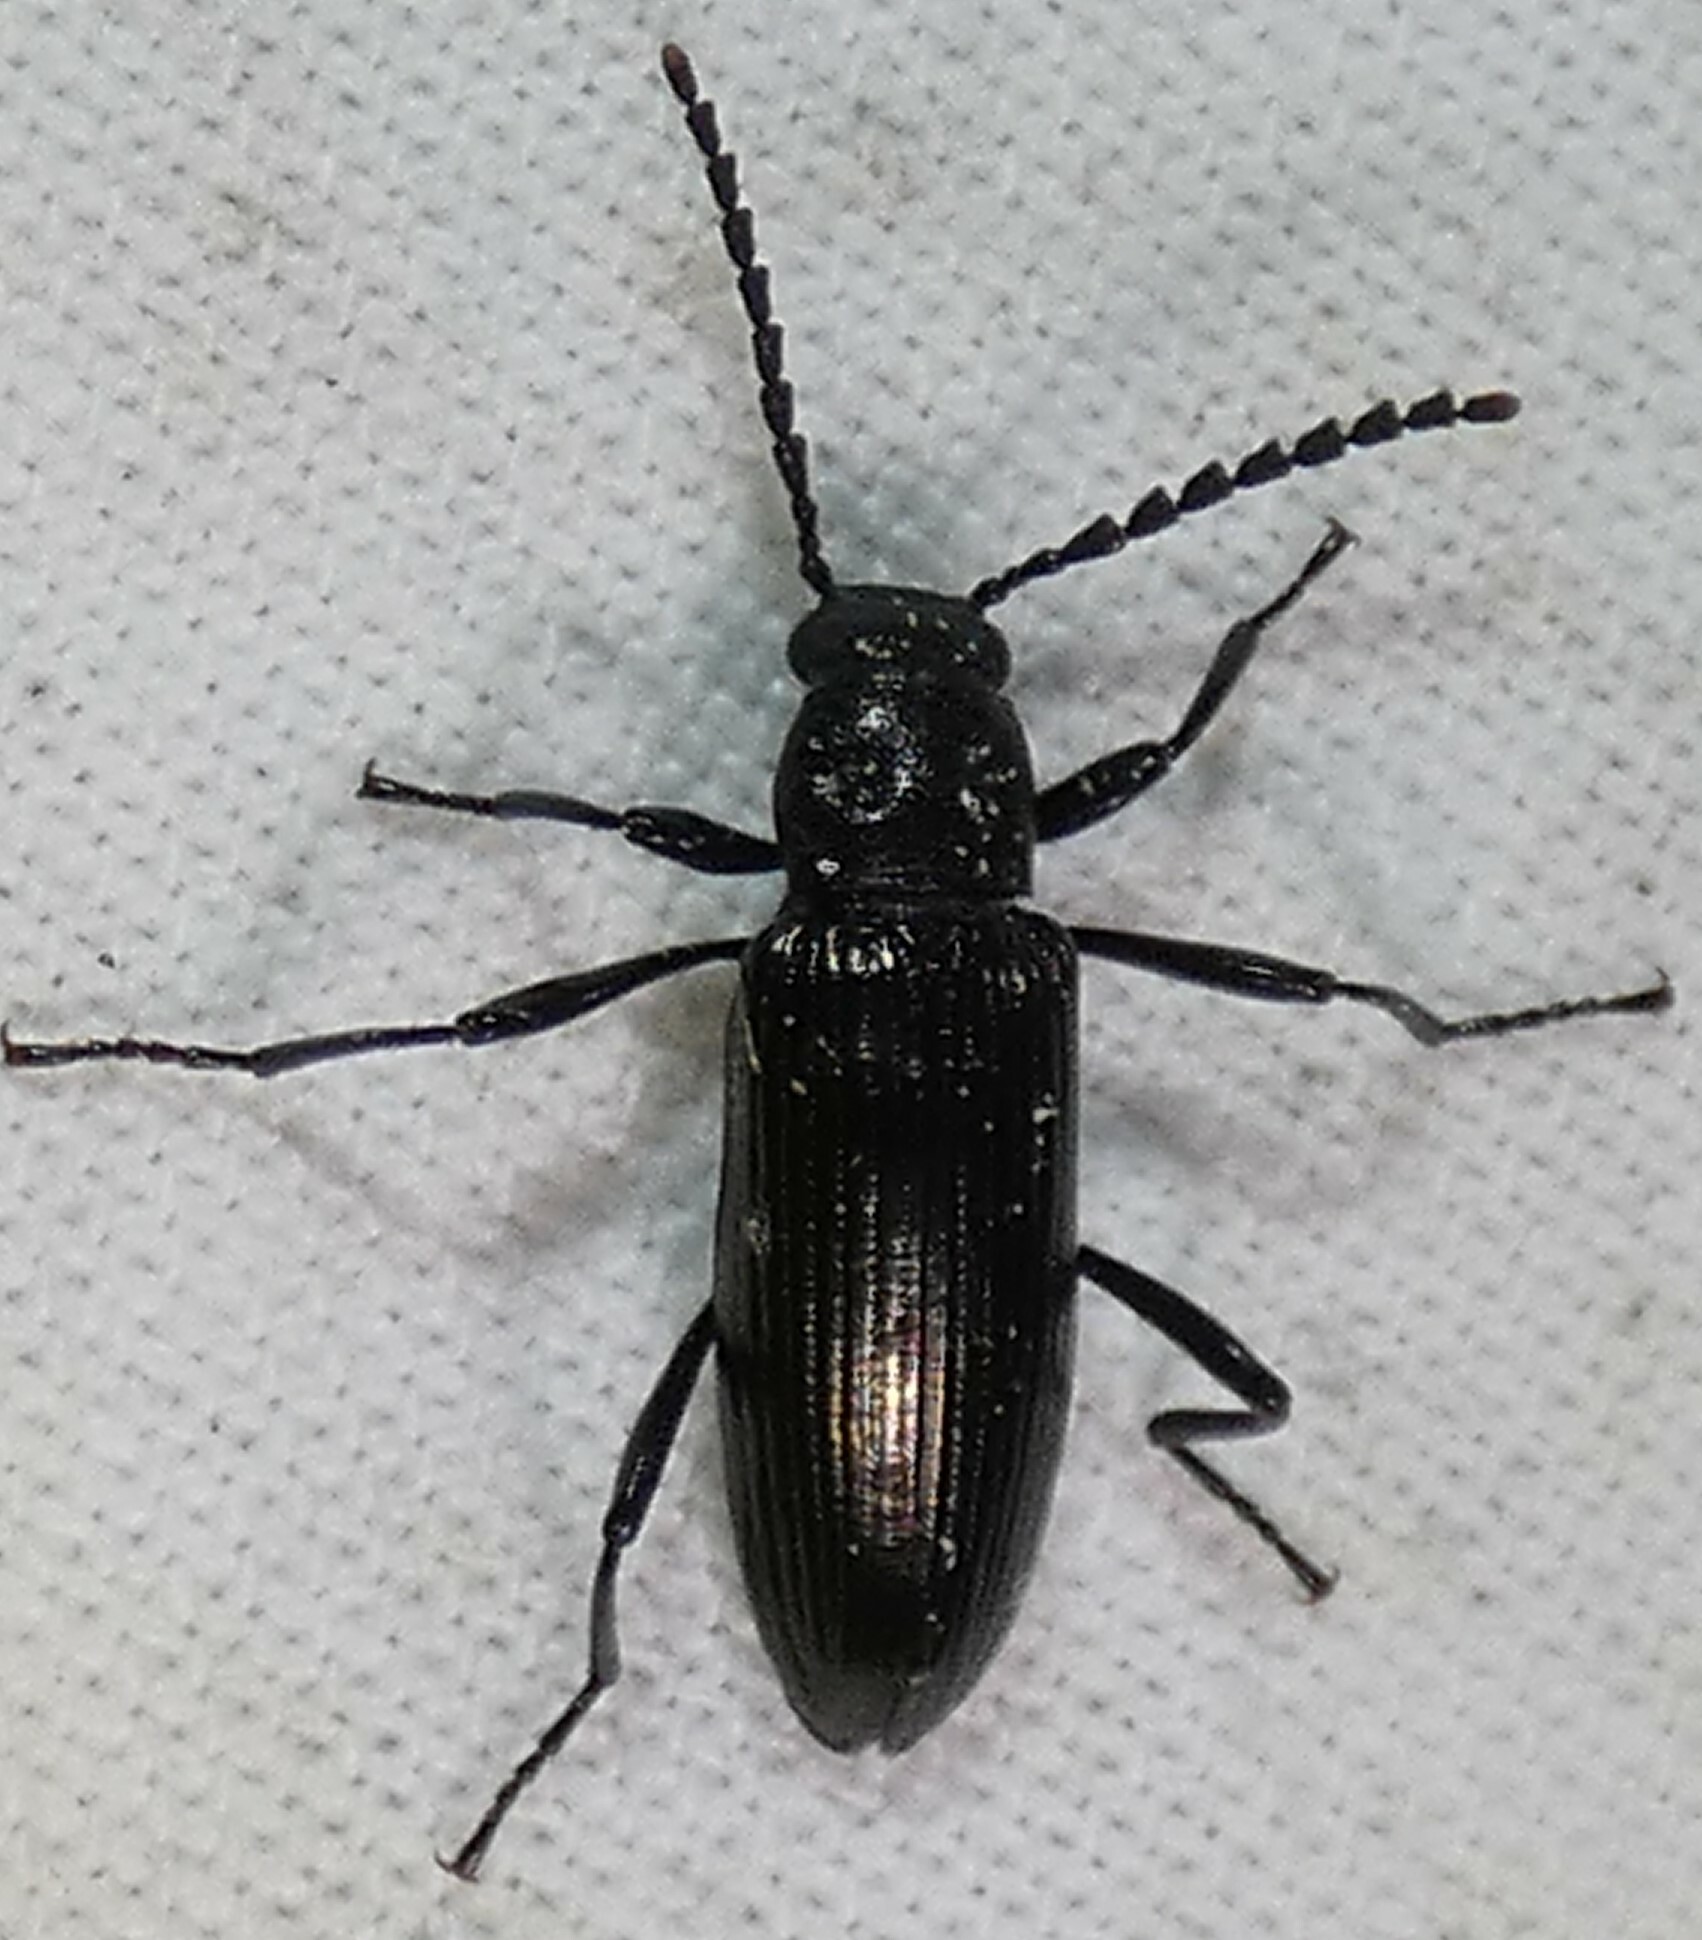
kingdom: Animalia
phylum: Arthropoda
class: Insecta
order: Coleoptera
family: Tenebrionidae
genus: Oploptera
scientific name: Oploptera
